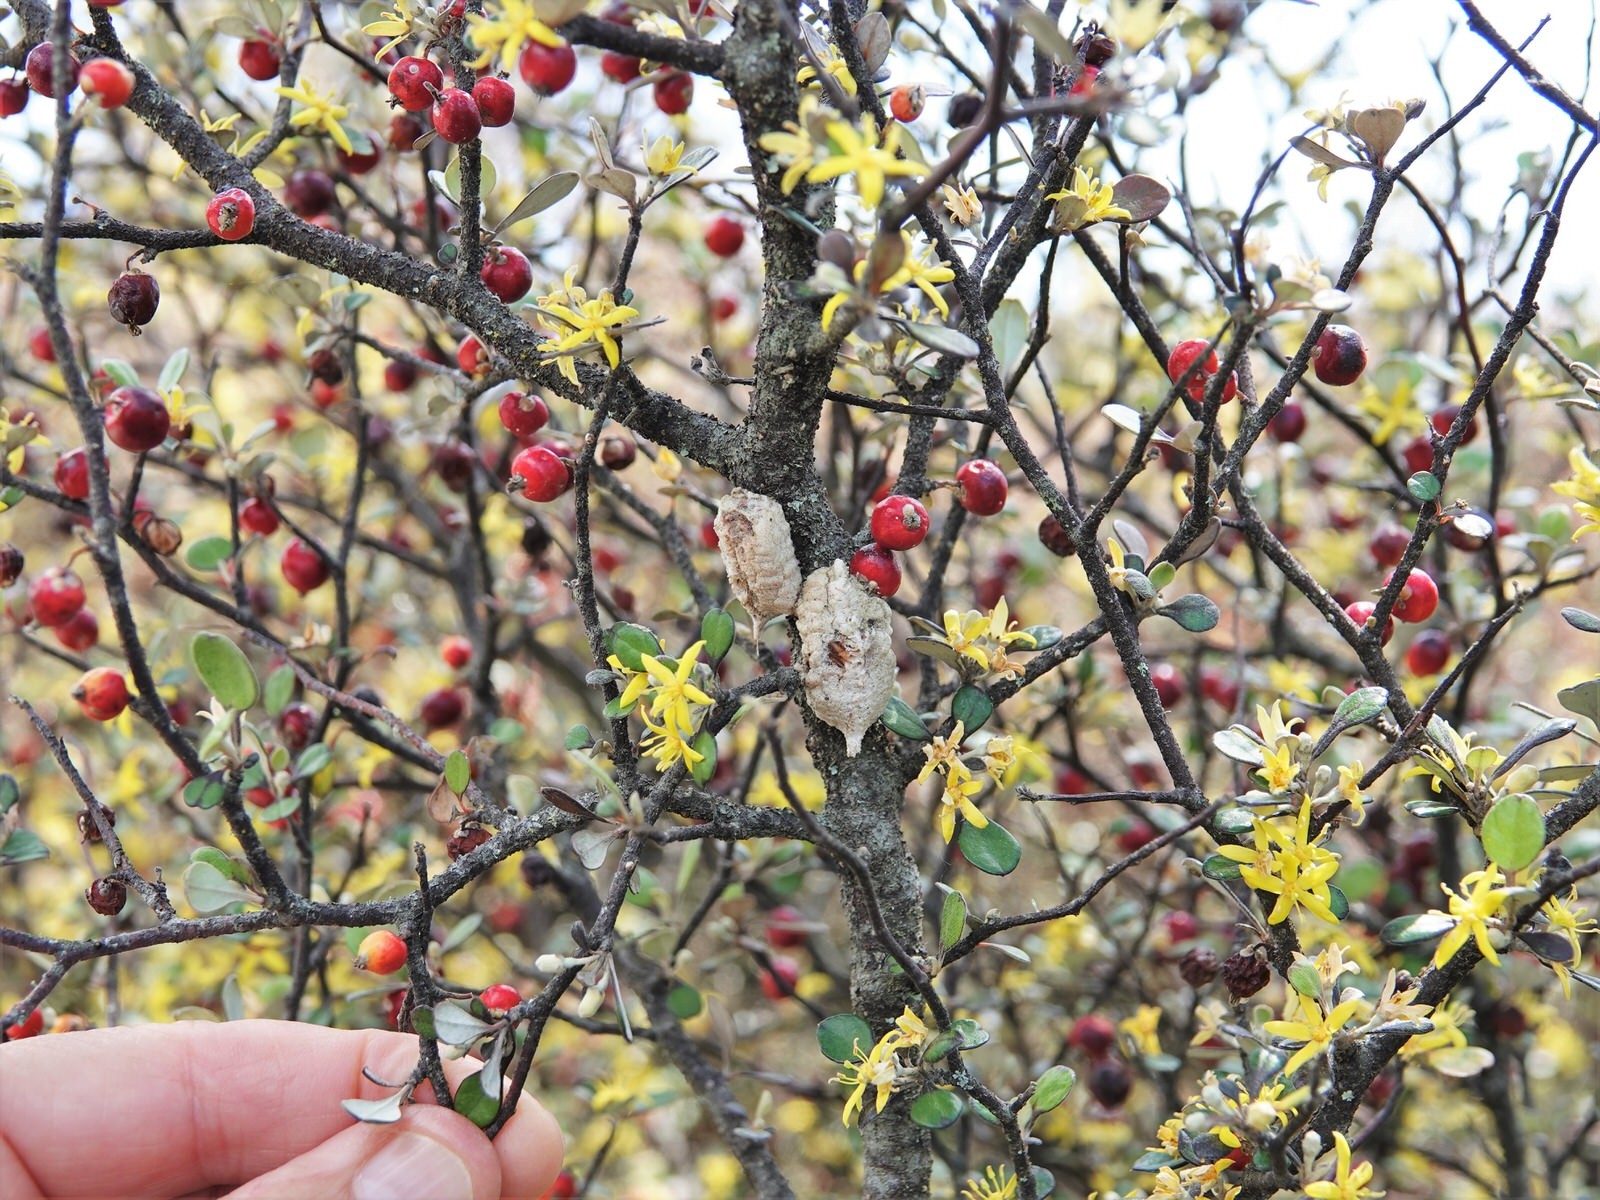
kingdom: Animalia
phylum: Arthropoda
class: Insecta
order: Mantodea
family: Miomantidae
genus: Miomantis
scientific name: Miomantis caffra
